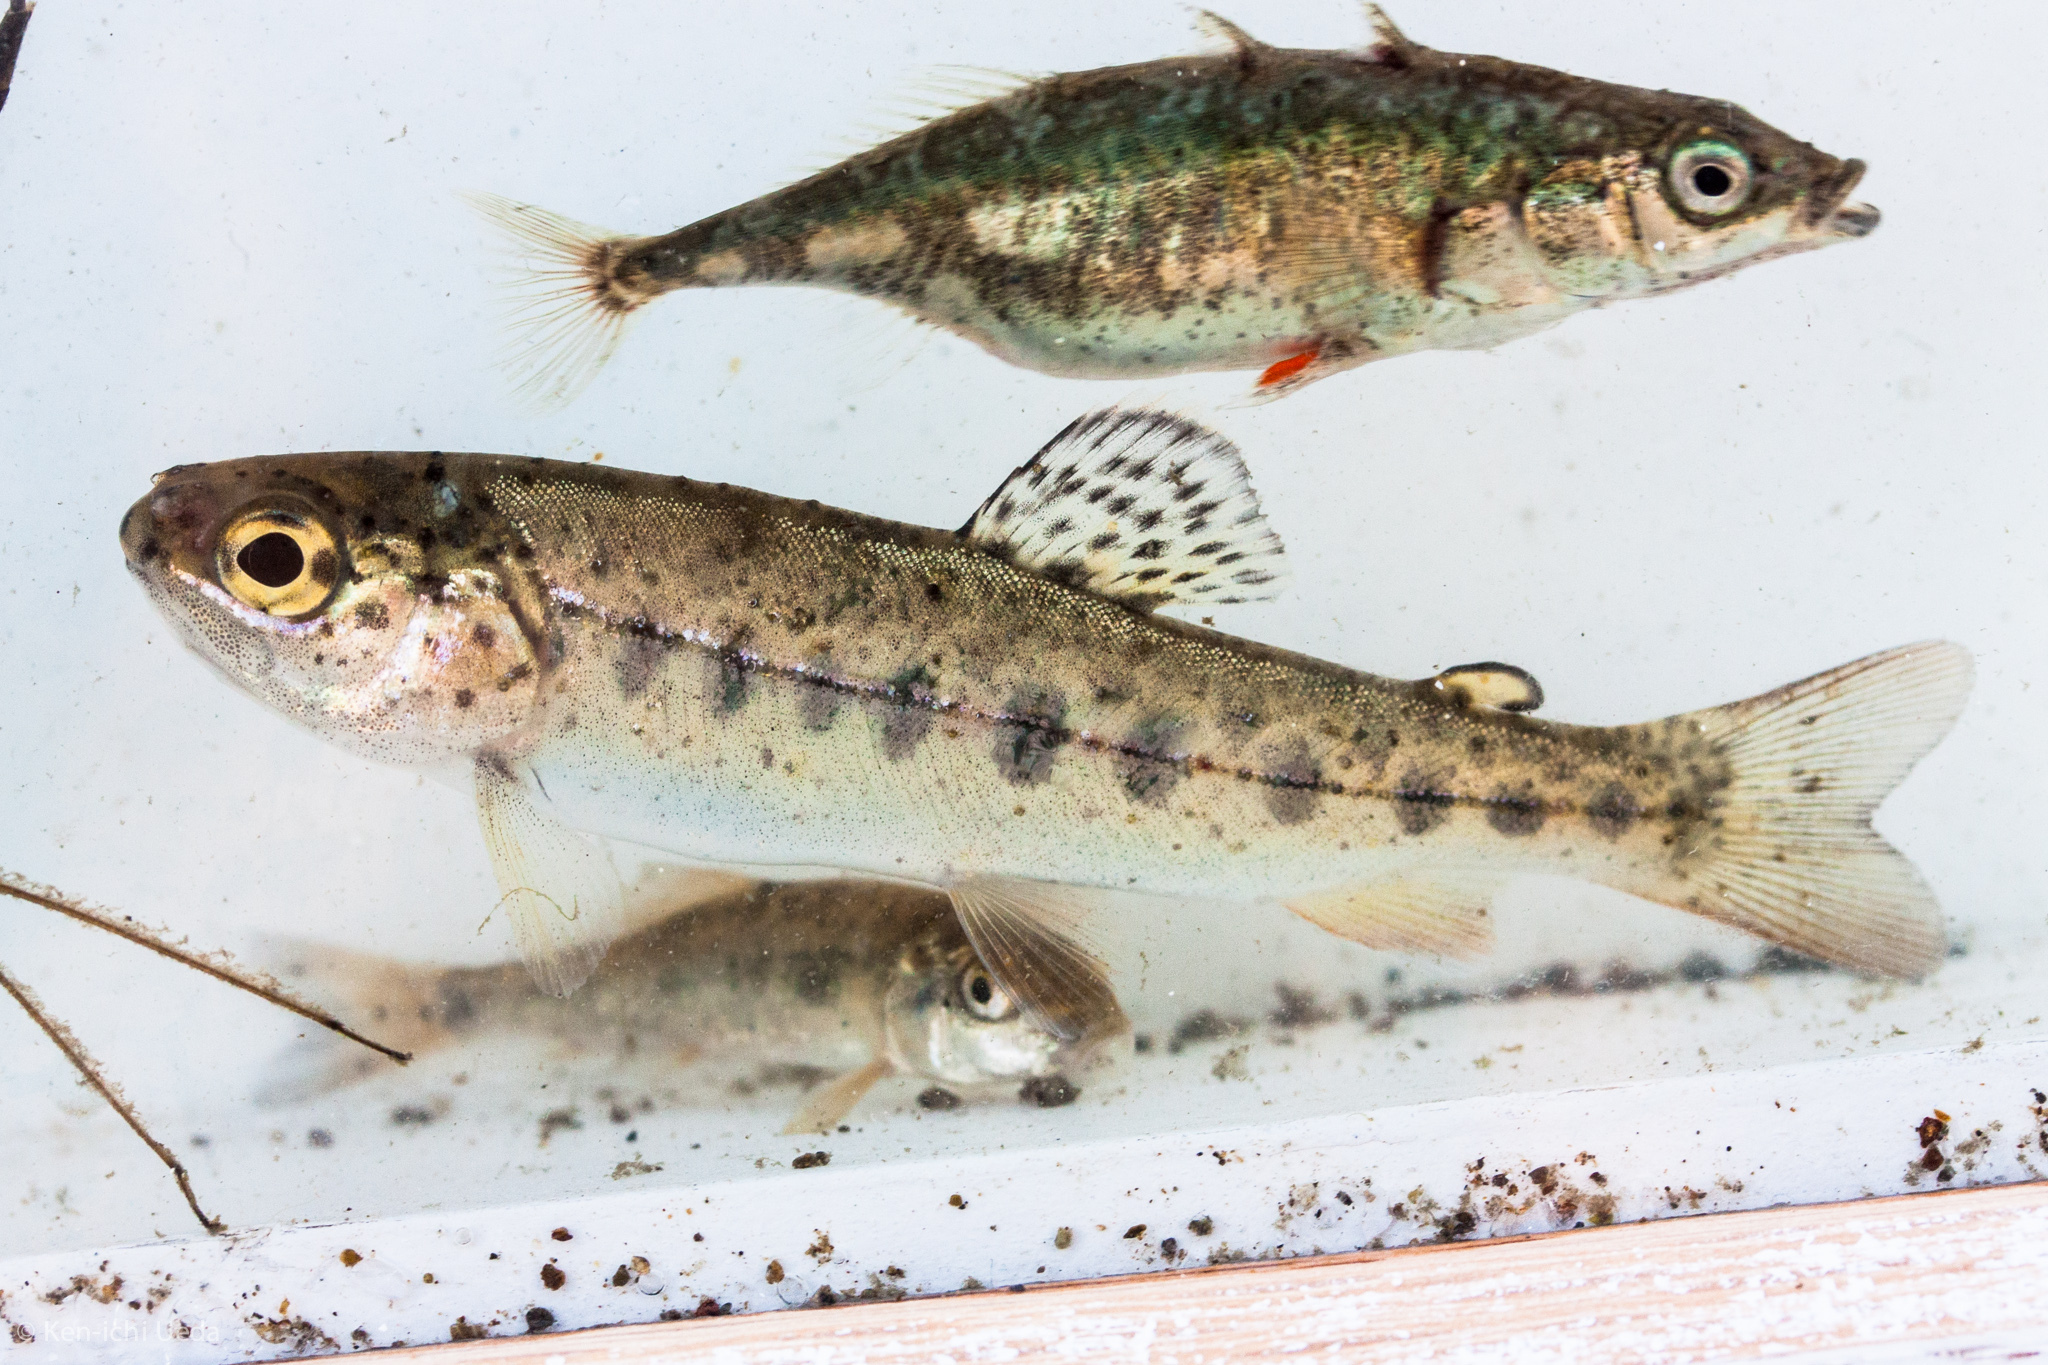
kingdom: Animalia
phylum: Chordata
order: Salmoniformes
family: Salmonidae
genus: Oncorhynchus
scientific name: Oncorhynchus mykiss
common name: Rainbow trout
